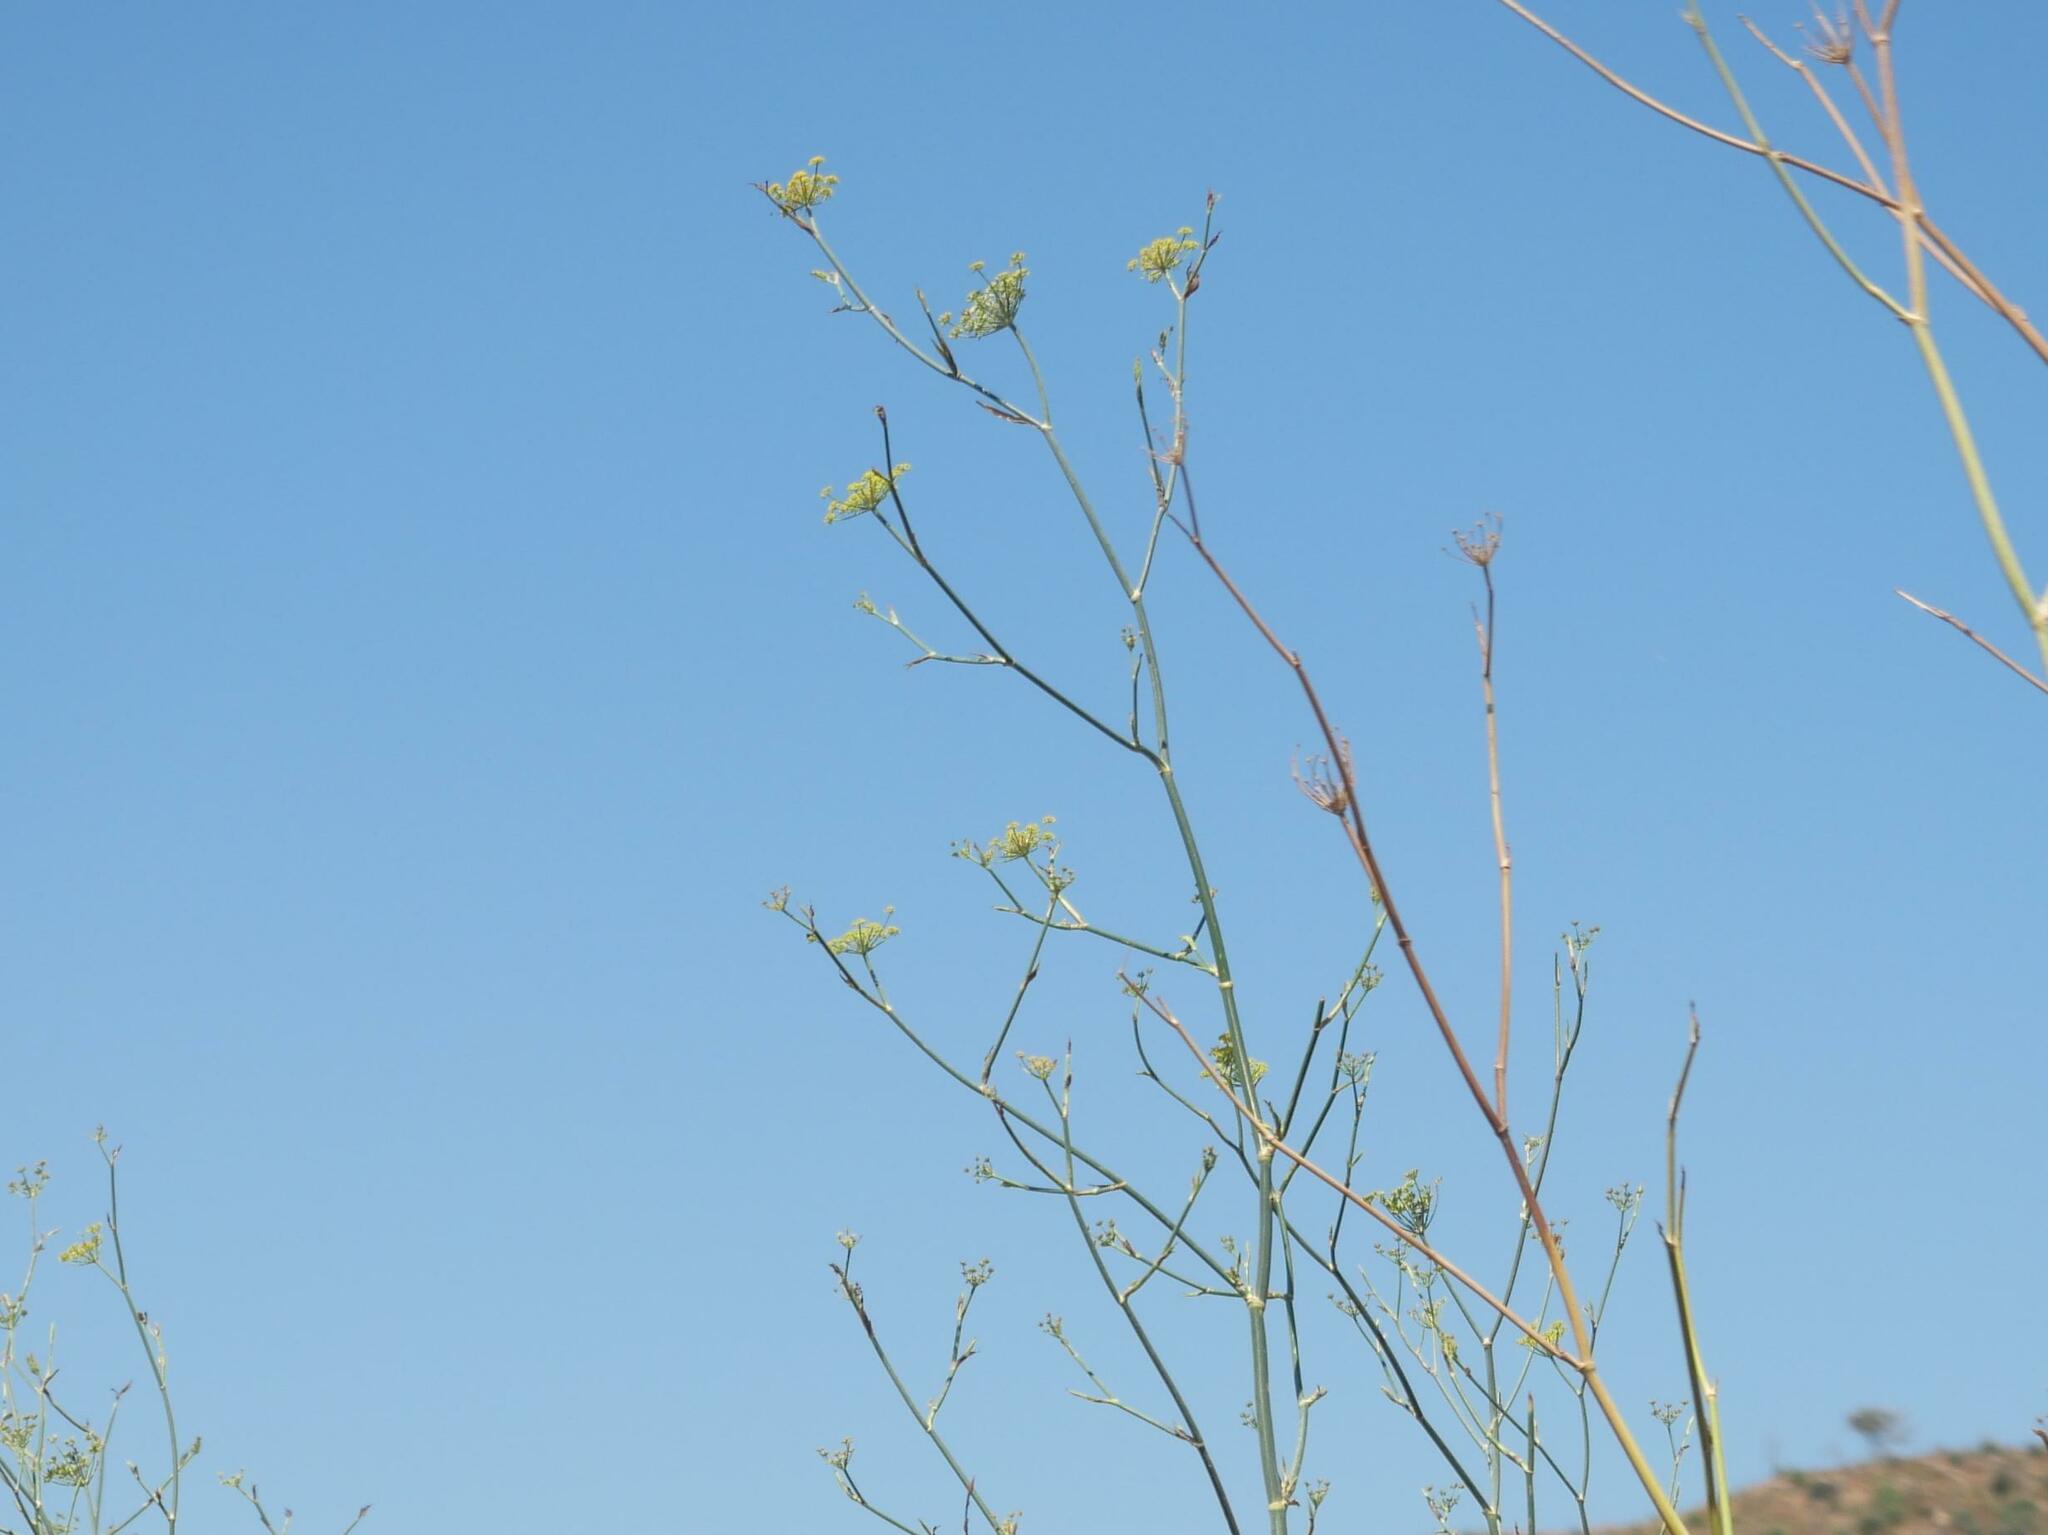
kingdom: Plantae
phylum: Tracheophyta
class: Magnoliopsida
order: Apiales
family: Apiaceae
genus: Foeniculum
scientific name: Foeniculum vulgare
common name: Fennel
